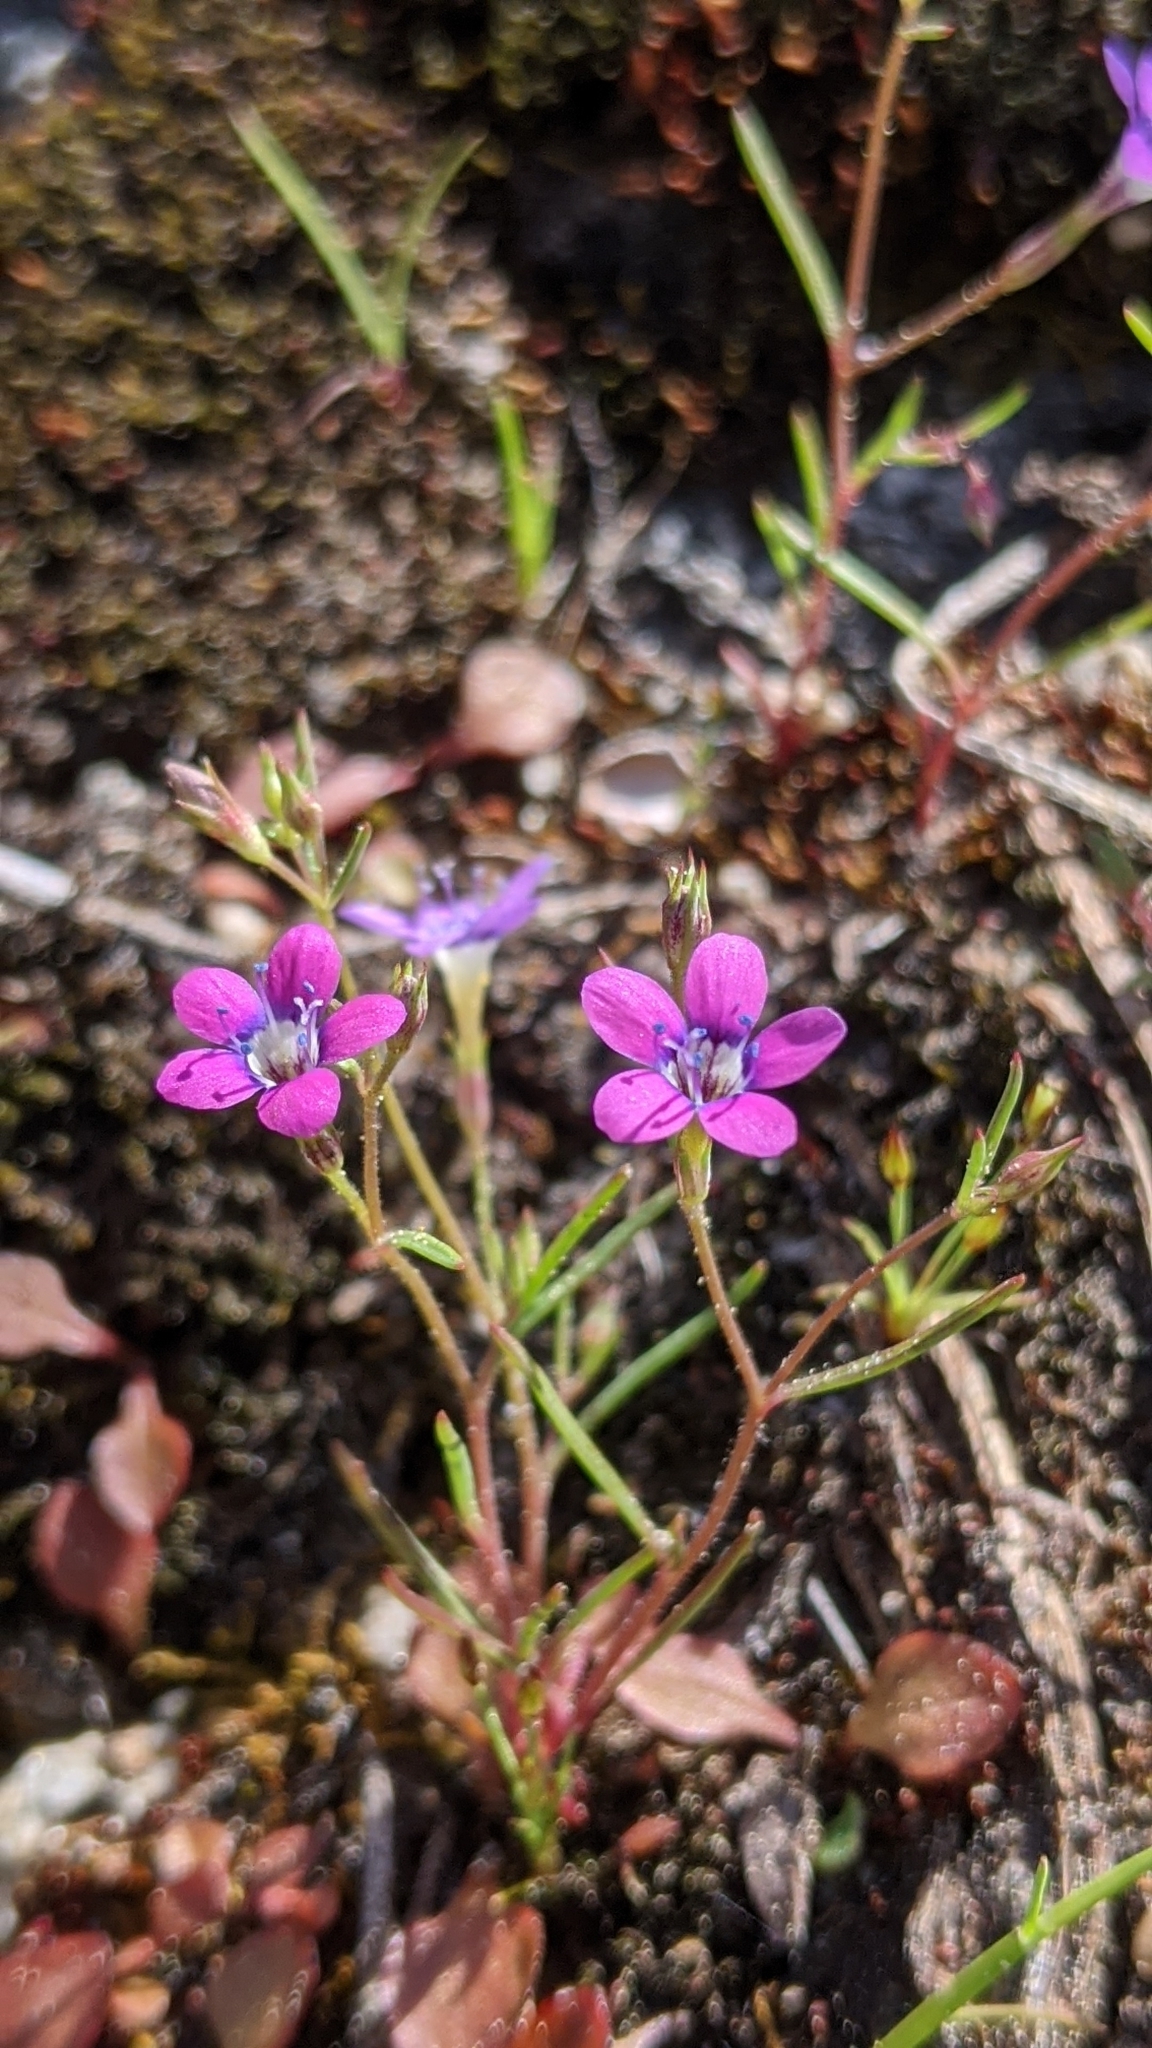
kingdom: Plantae
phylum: Tracheophyta
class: Magnoliopsida
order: Ericales
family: Polemoniaceae
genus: Navarretia
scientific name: Navarretia leptalea
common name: Bridges' pincushionplant
